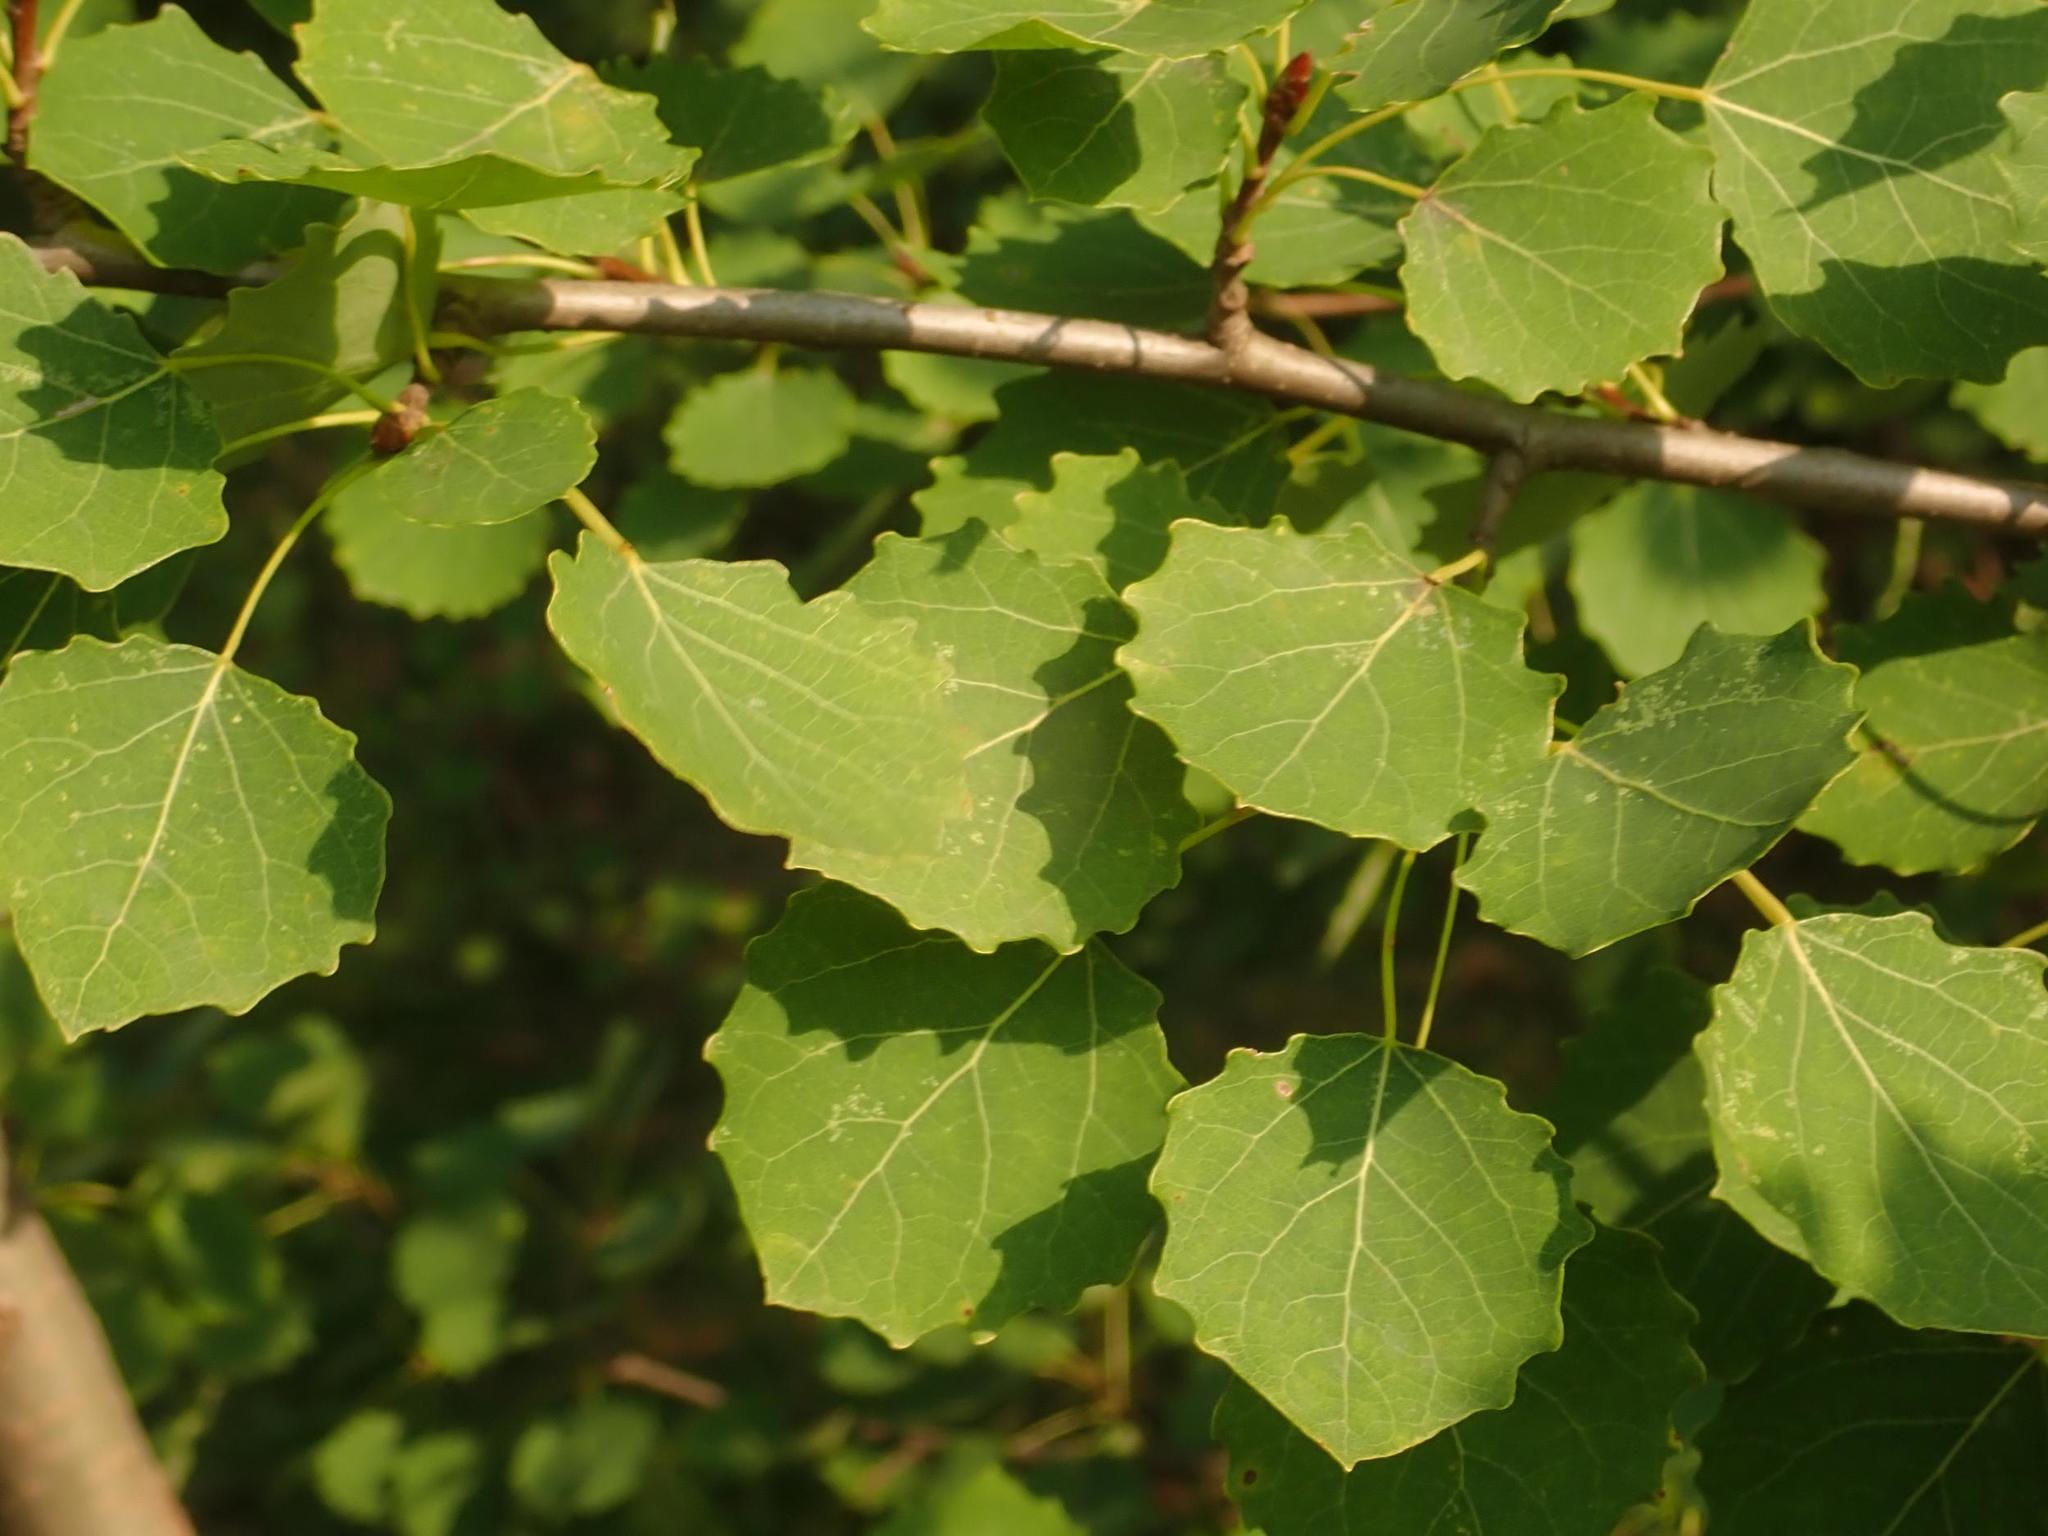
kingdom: Plantae
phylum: Tracheophyta
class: Magnoliopsida
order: Malpighiales
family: Salicaceae
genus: Populus
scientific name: Populus tremula
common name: European aspen
